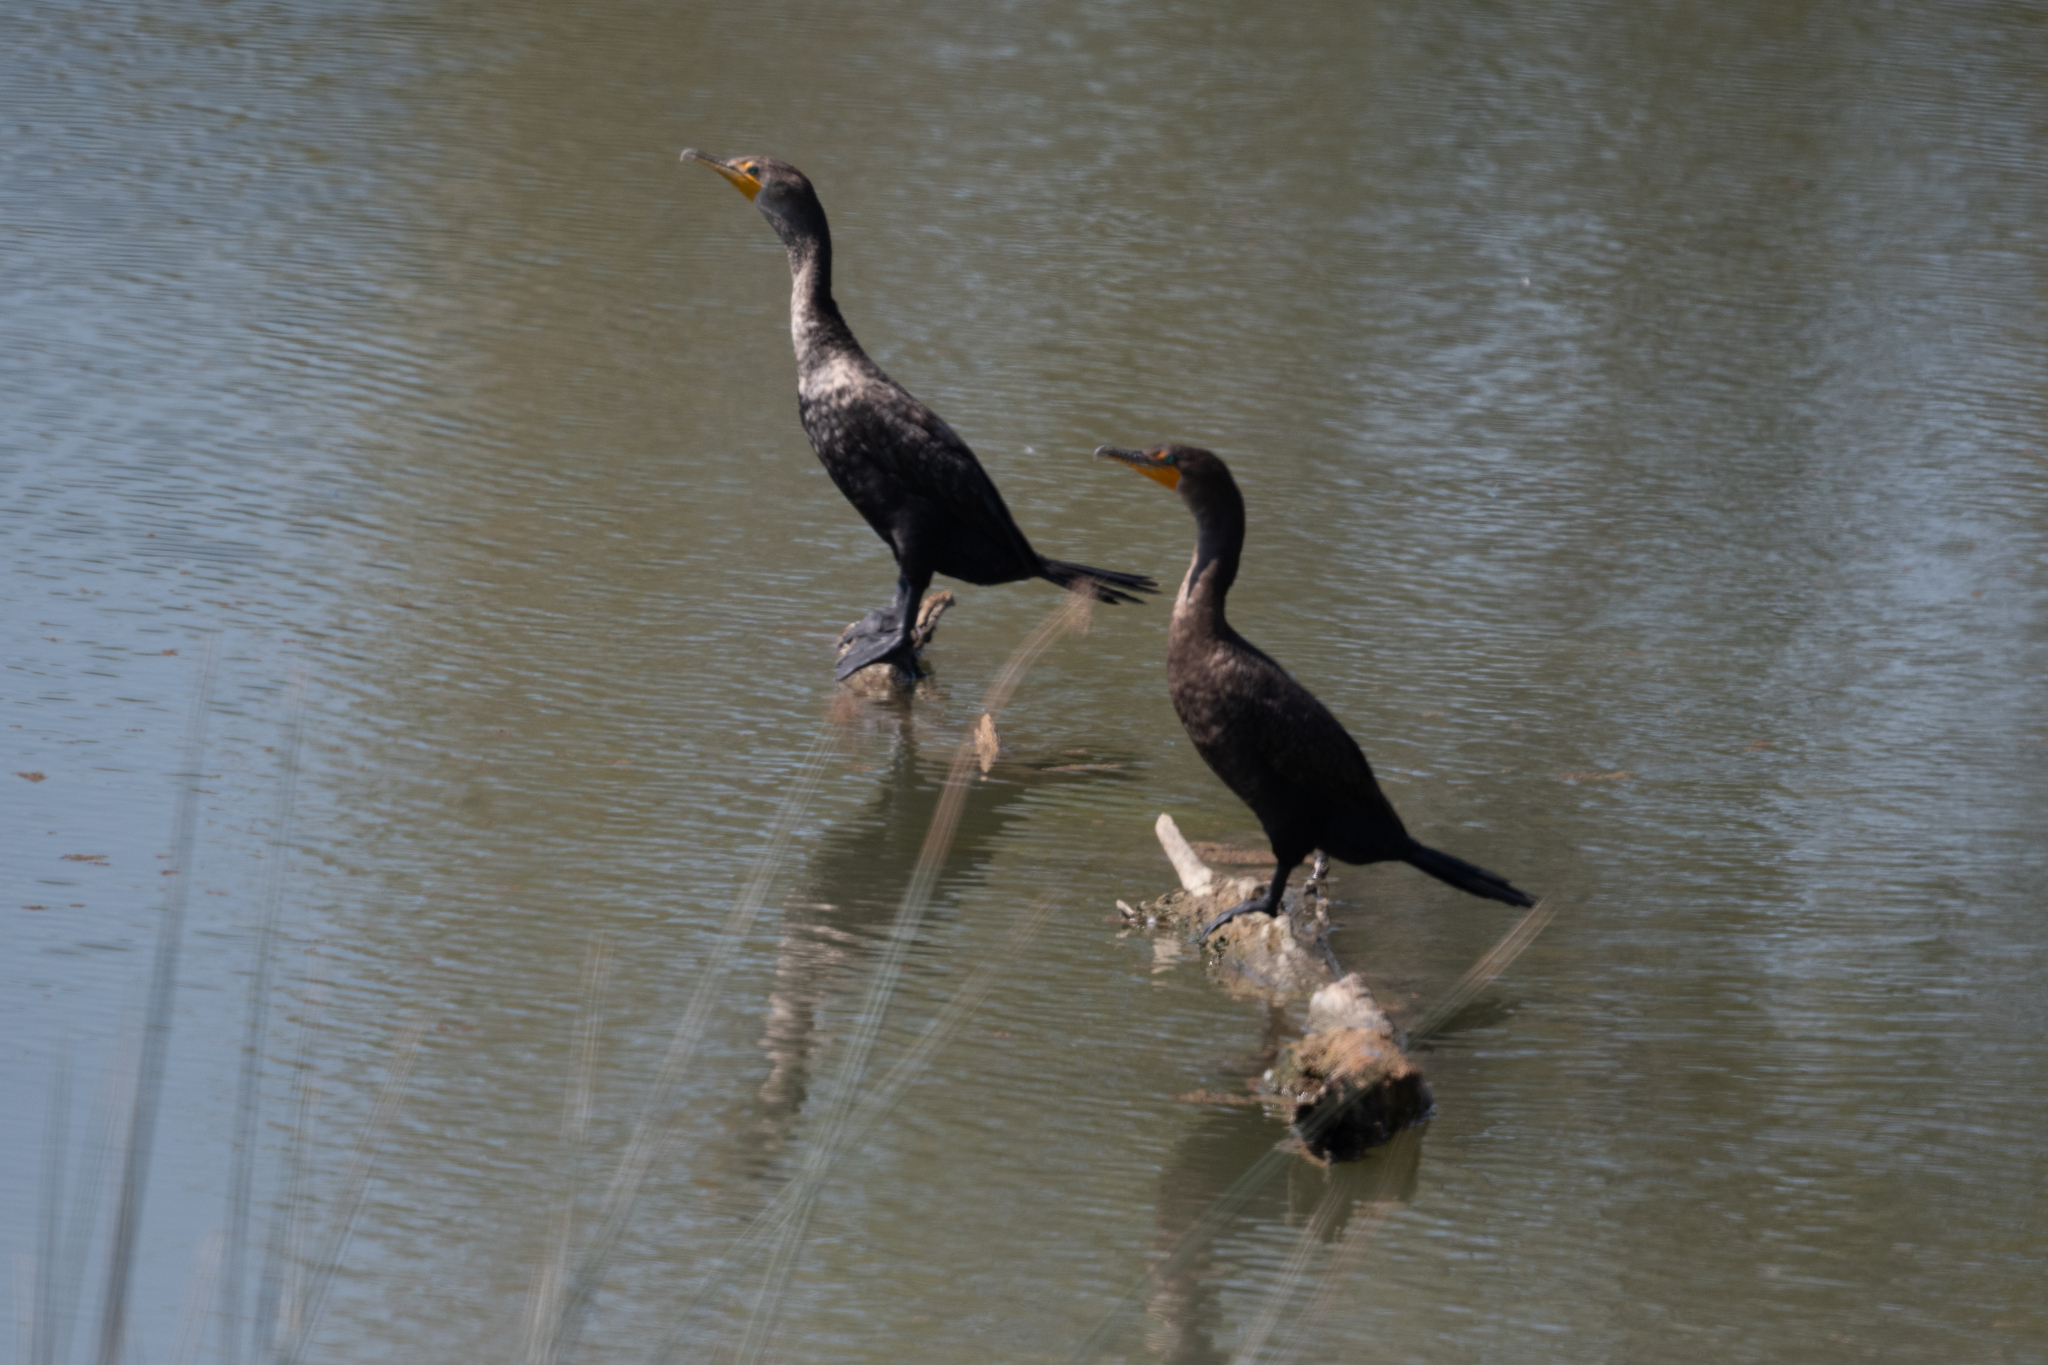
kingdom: Animalia
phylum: Chordata
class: Aves
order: Suliformes
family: Phalacrocoracidae
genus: Phalacrocorax
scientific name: Phalacrocorax auritus
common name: Double-crested cormorant
